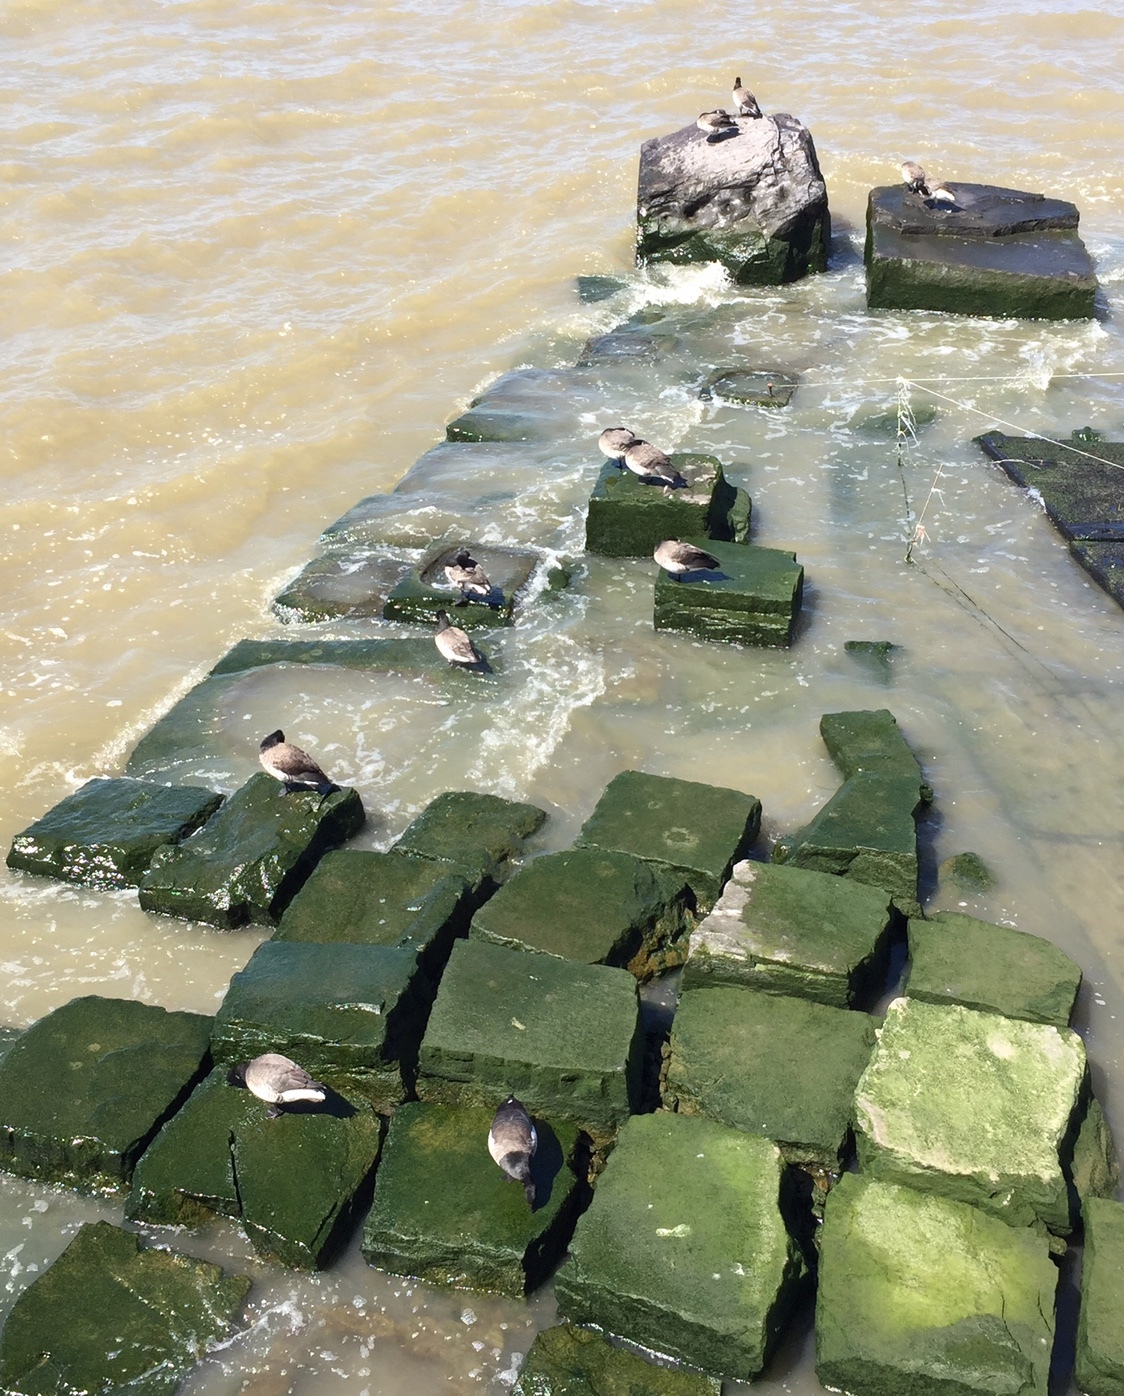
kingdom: Animalia
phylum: Chordata
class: Aves
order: Anseriformes
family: Anatidae
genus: Branta
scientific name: Branta bernicla
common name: Brant goose
